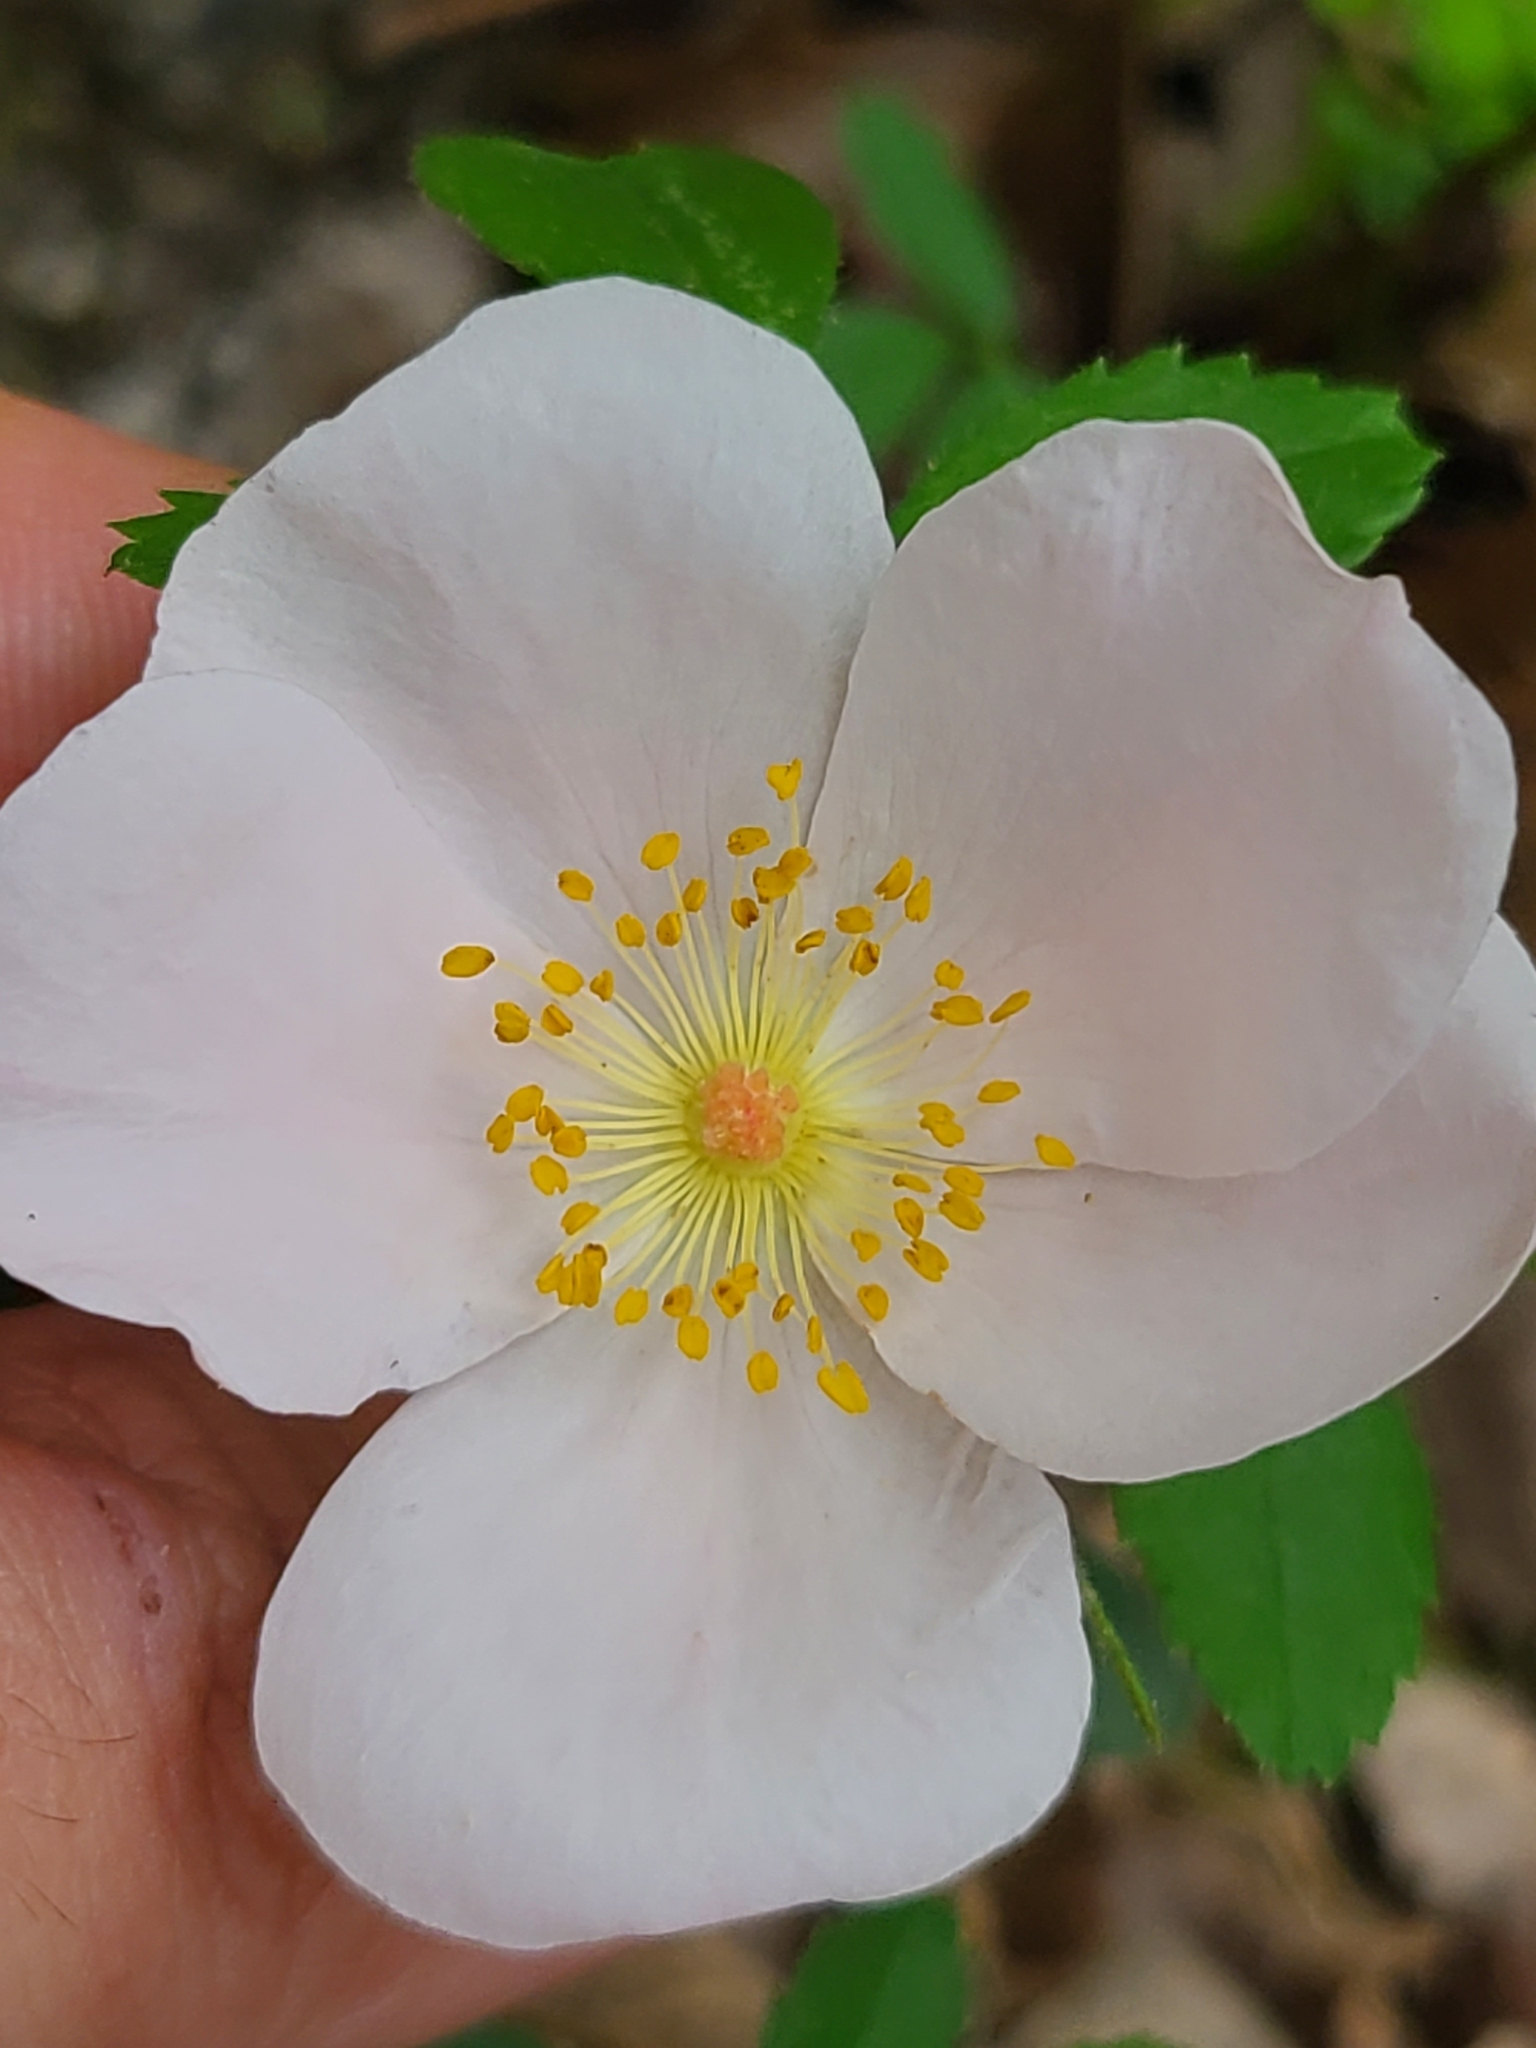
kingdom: Plantae
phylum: Tracheophyta
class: Magnoliopsida
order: Rosales
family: Rosaceae
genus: Rosa
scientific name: Rosa carolina
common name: Pasture rose
